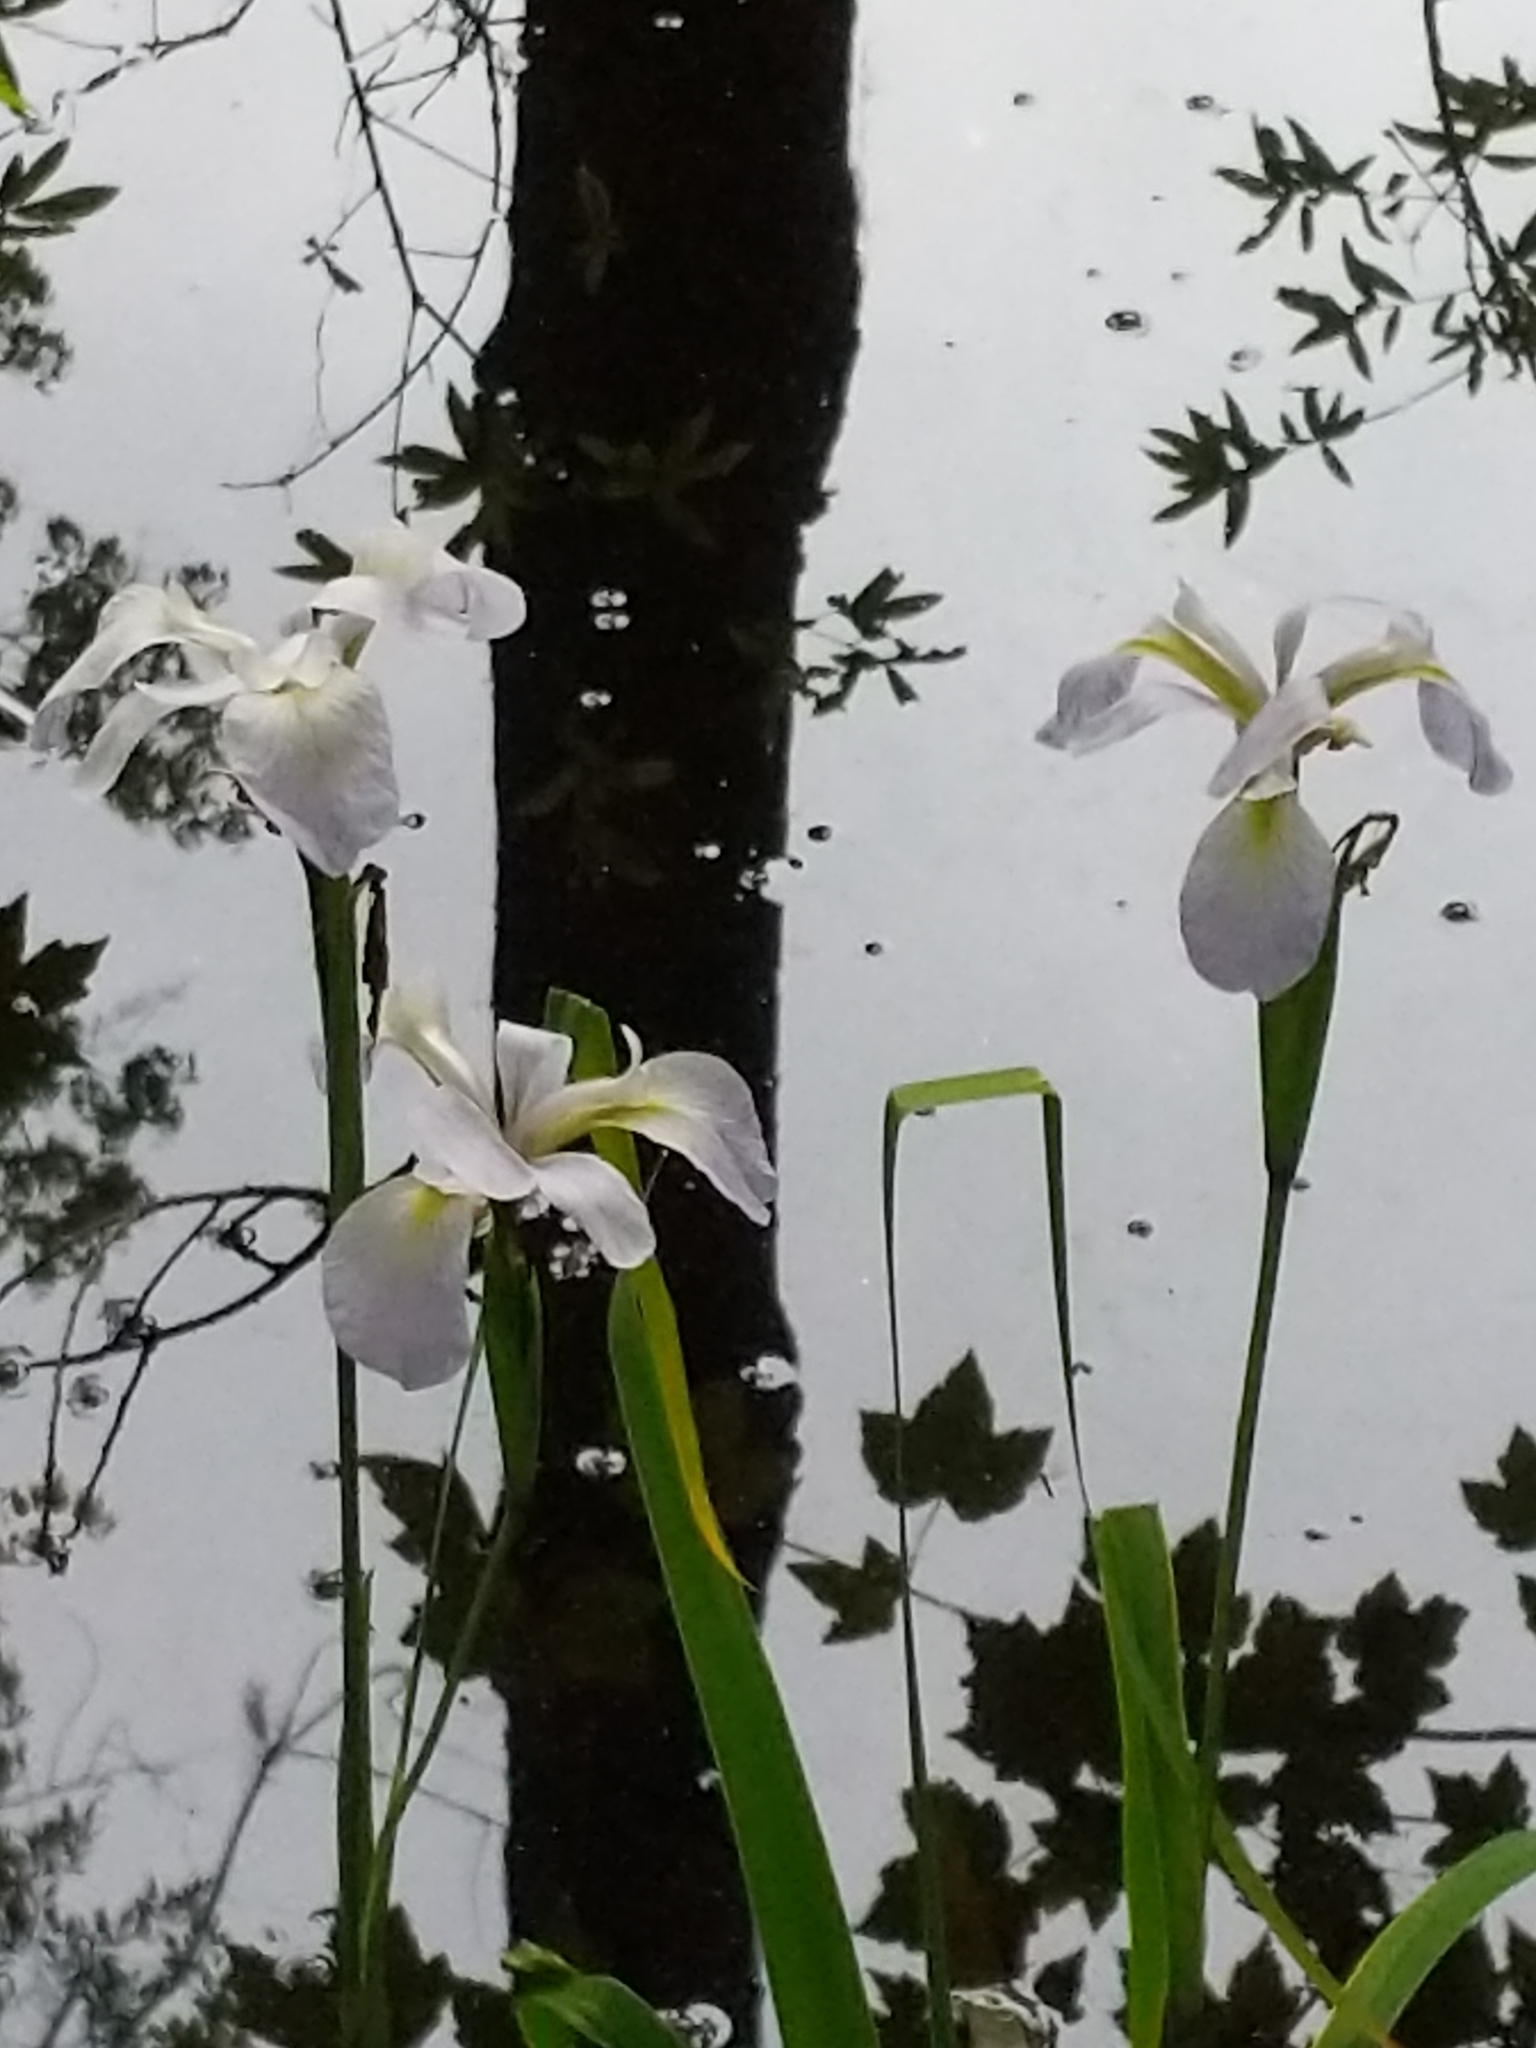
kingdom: Plantae
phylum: Tracheophyta
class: Liliopsida
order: Asparagales
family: Iridaceae
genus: Iris
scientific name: Iris virginica
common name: Southern blue flag
